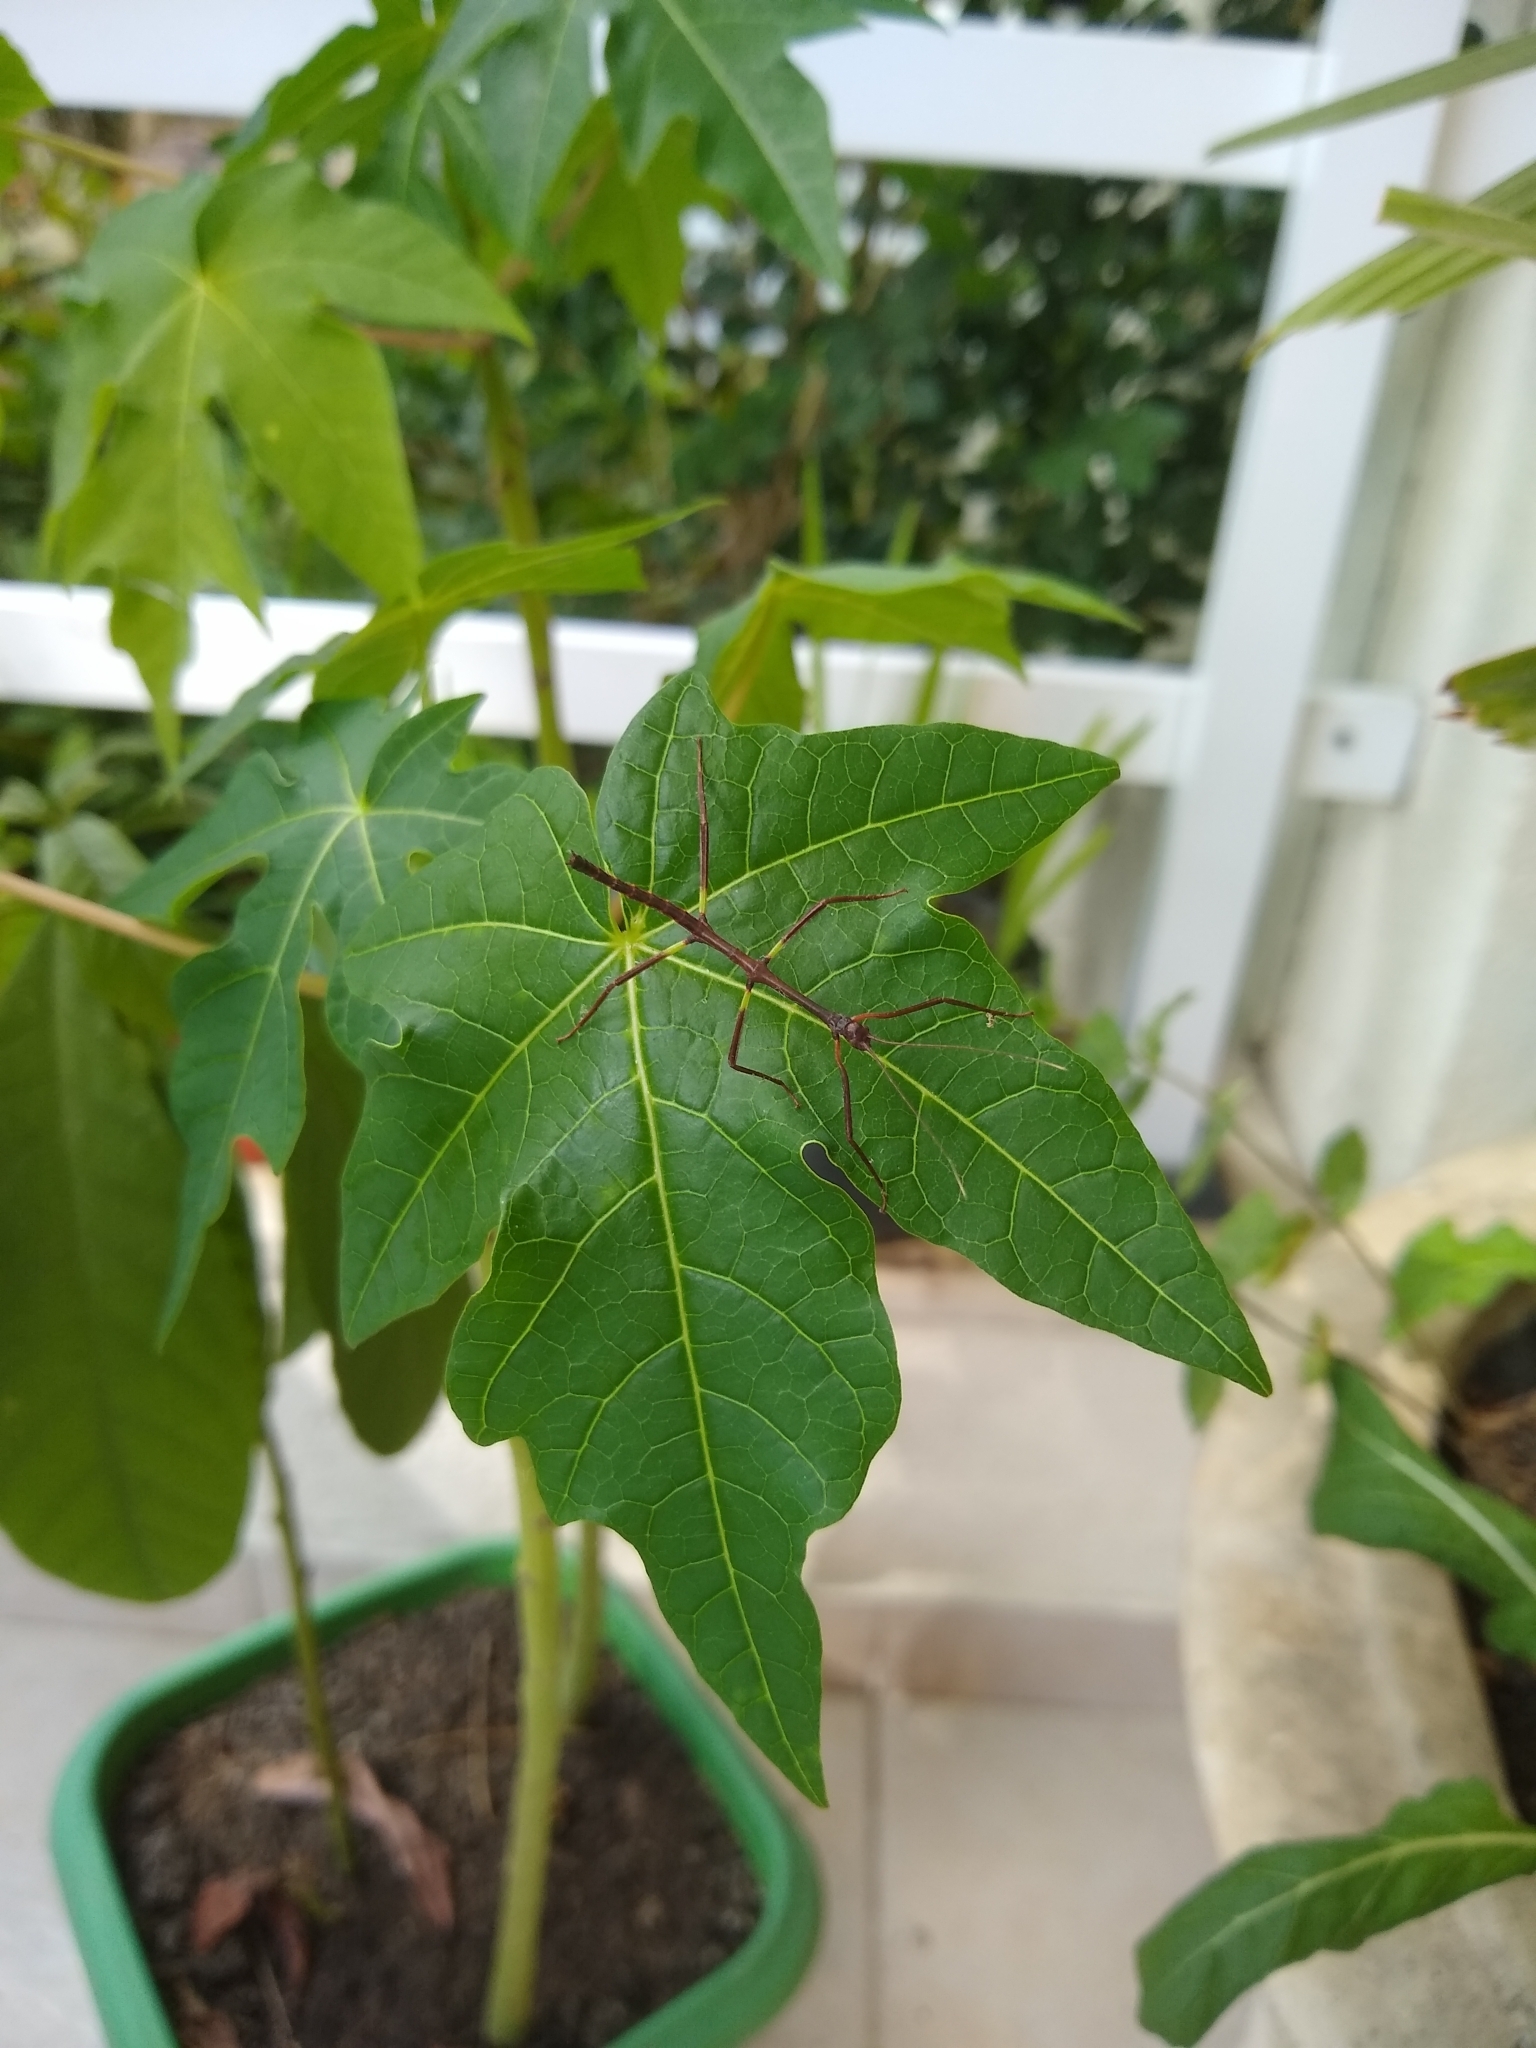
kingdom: Animalia
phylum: Arthropoda
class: Insecta
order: Phasmida
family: Phasmatidae
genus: Cladomorphus
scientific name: Cladomorphus phyllinus
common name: Brazilian giant stick insect
